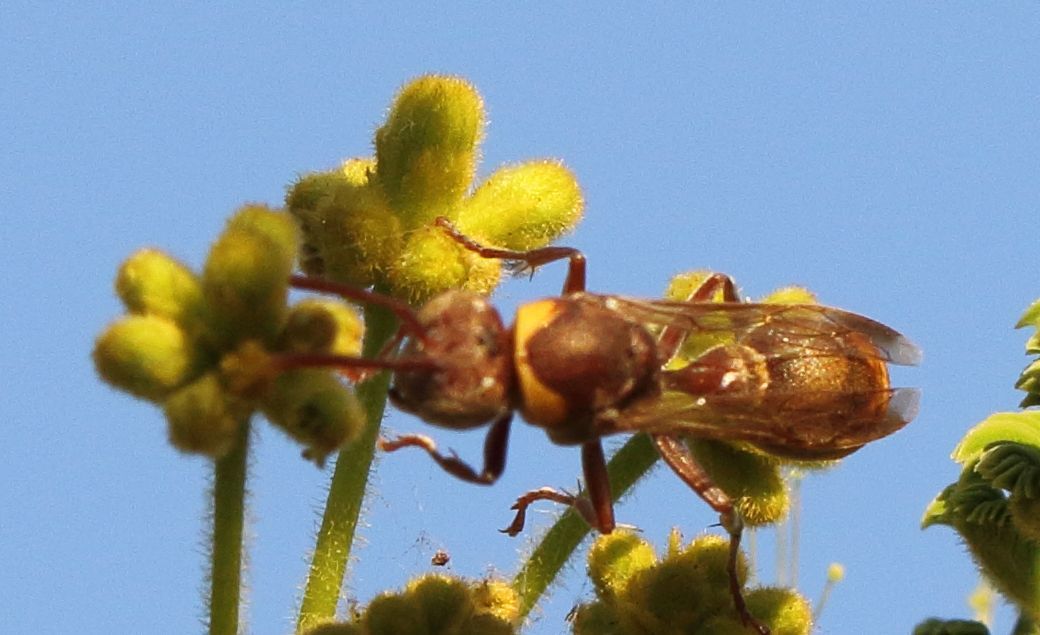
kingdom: Animalia
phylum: Arthropoda
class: Insecta
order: Hymenoptera
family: Vespidae
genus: Ropalidia
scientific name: Ropalidia guttatipennis
